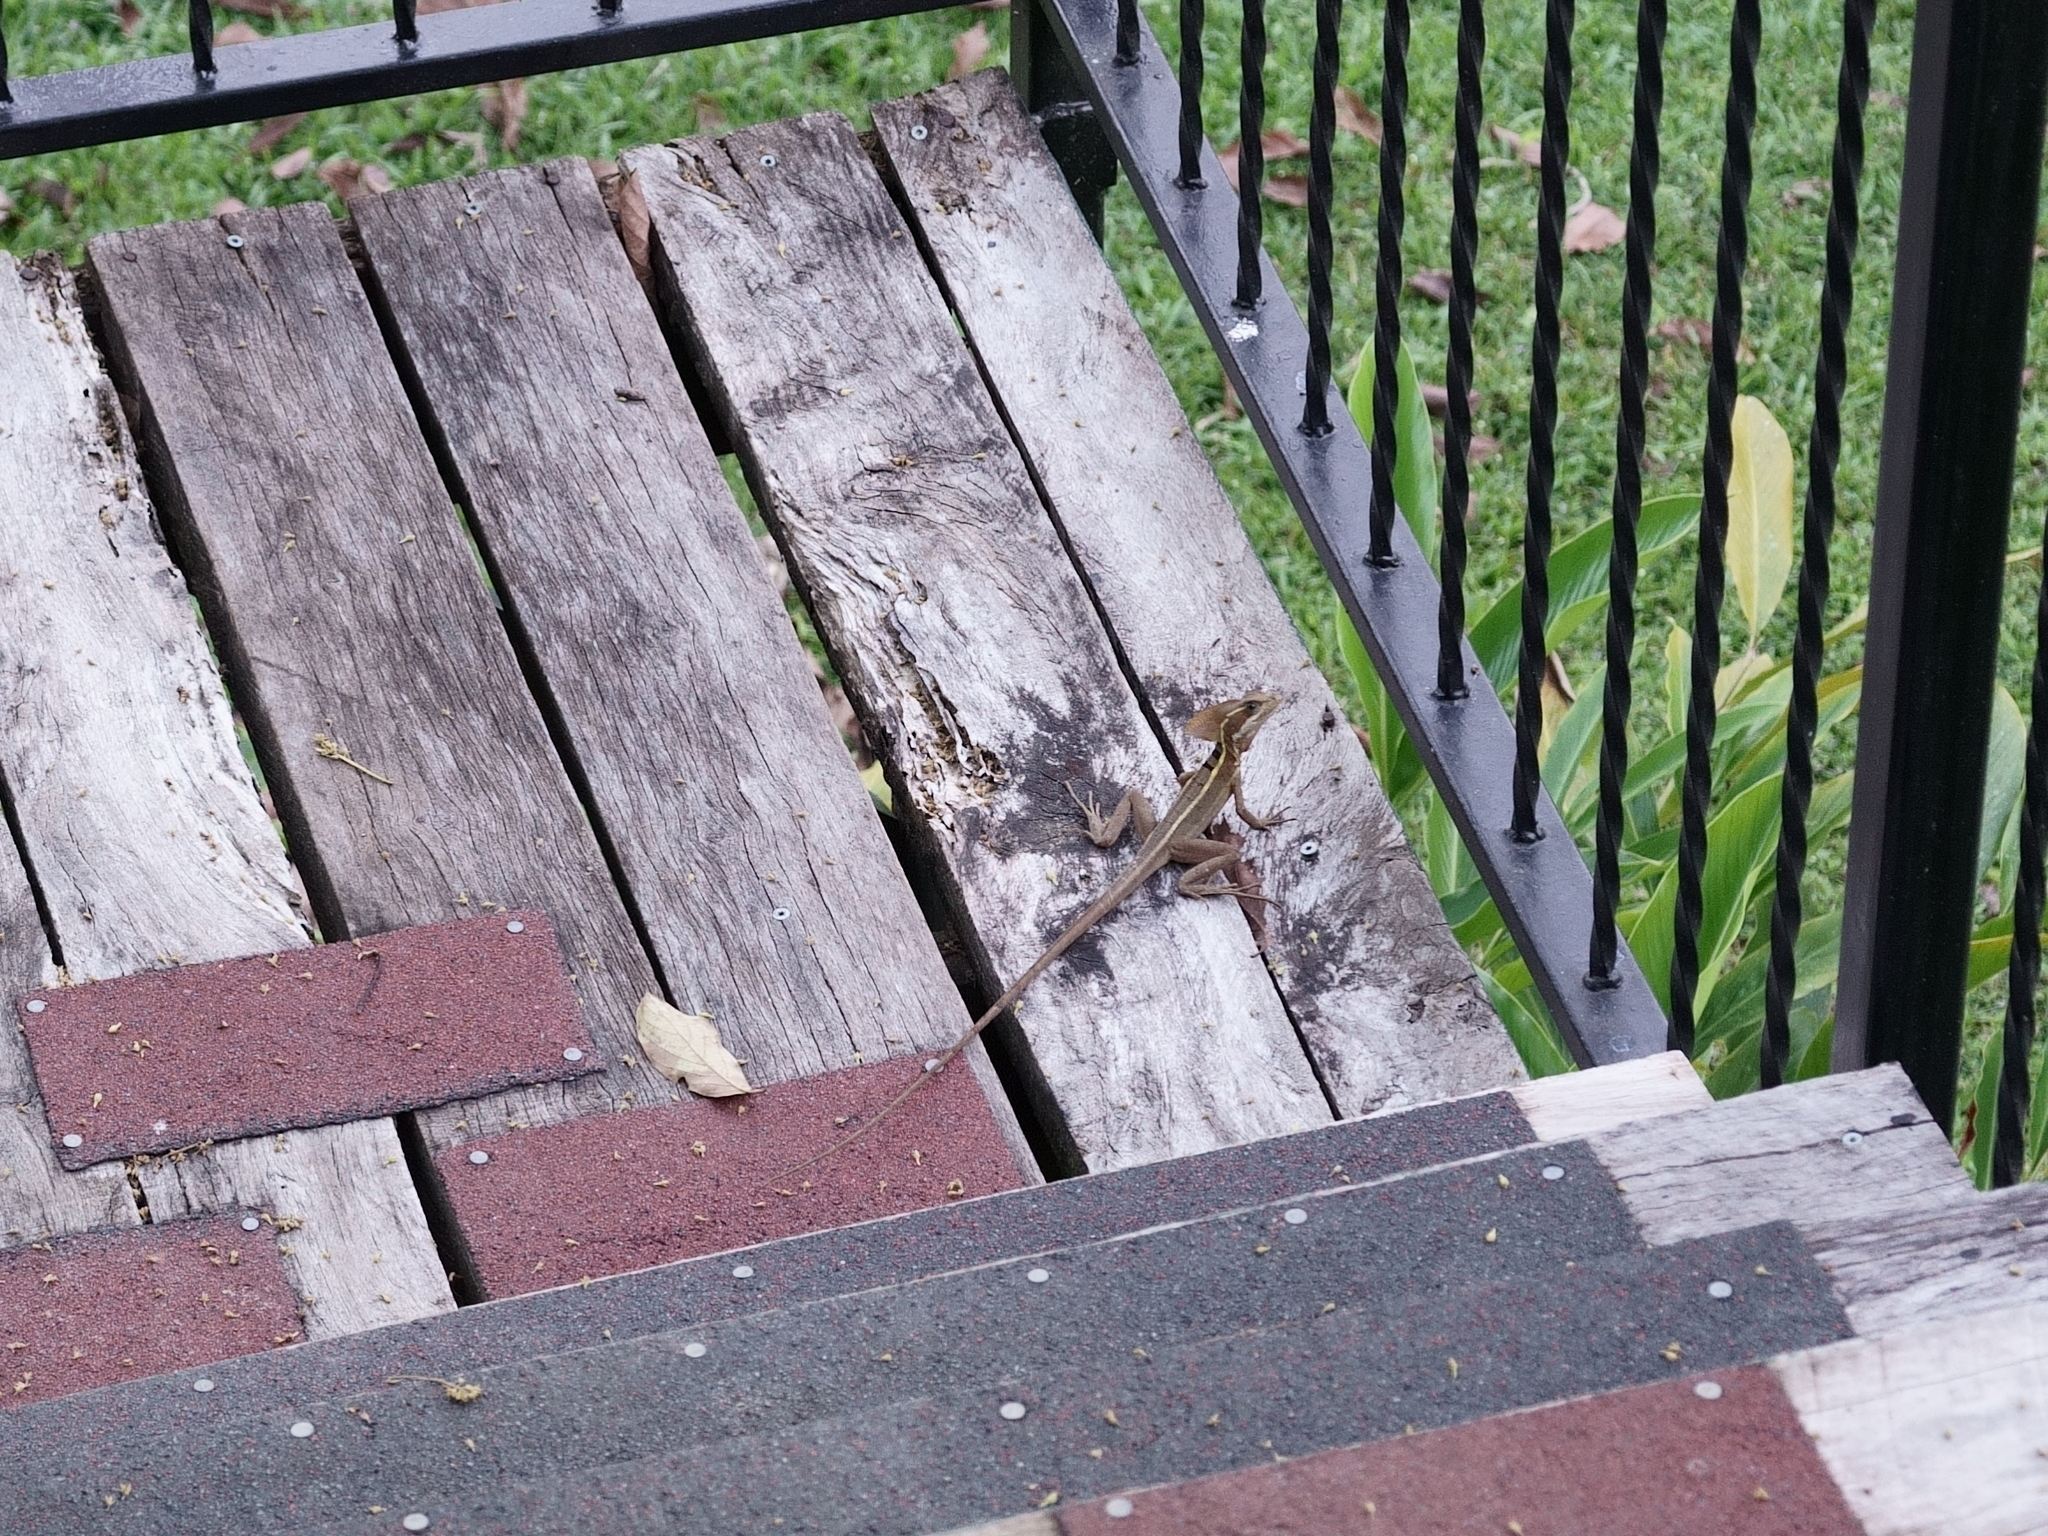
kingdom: Animalia
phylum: Chordata
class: Squamata
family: Corytophanidae
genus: Basiliscus
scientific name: Basiliscus vittatus
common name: Brown basilisk
